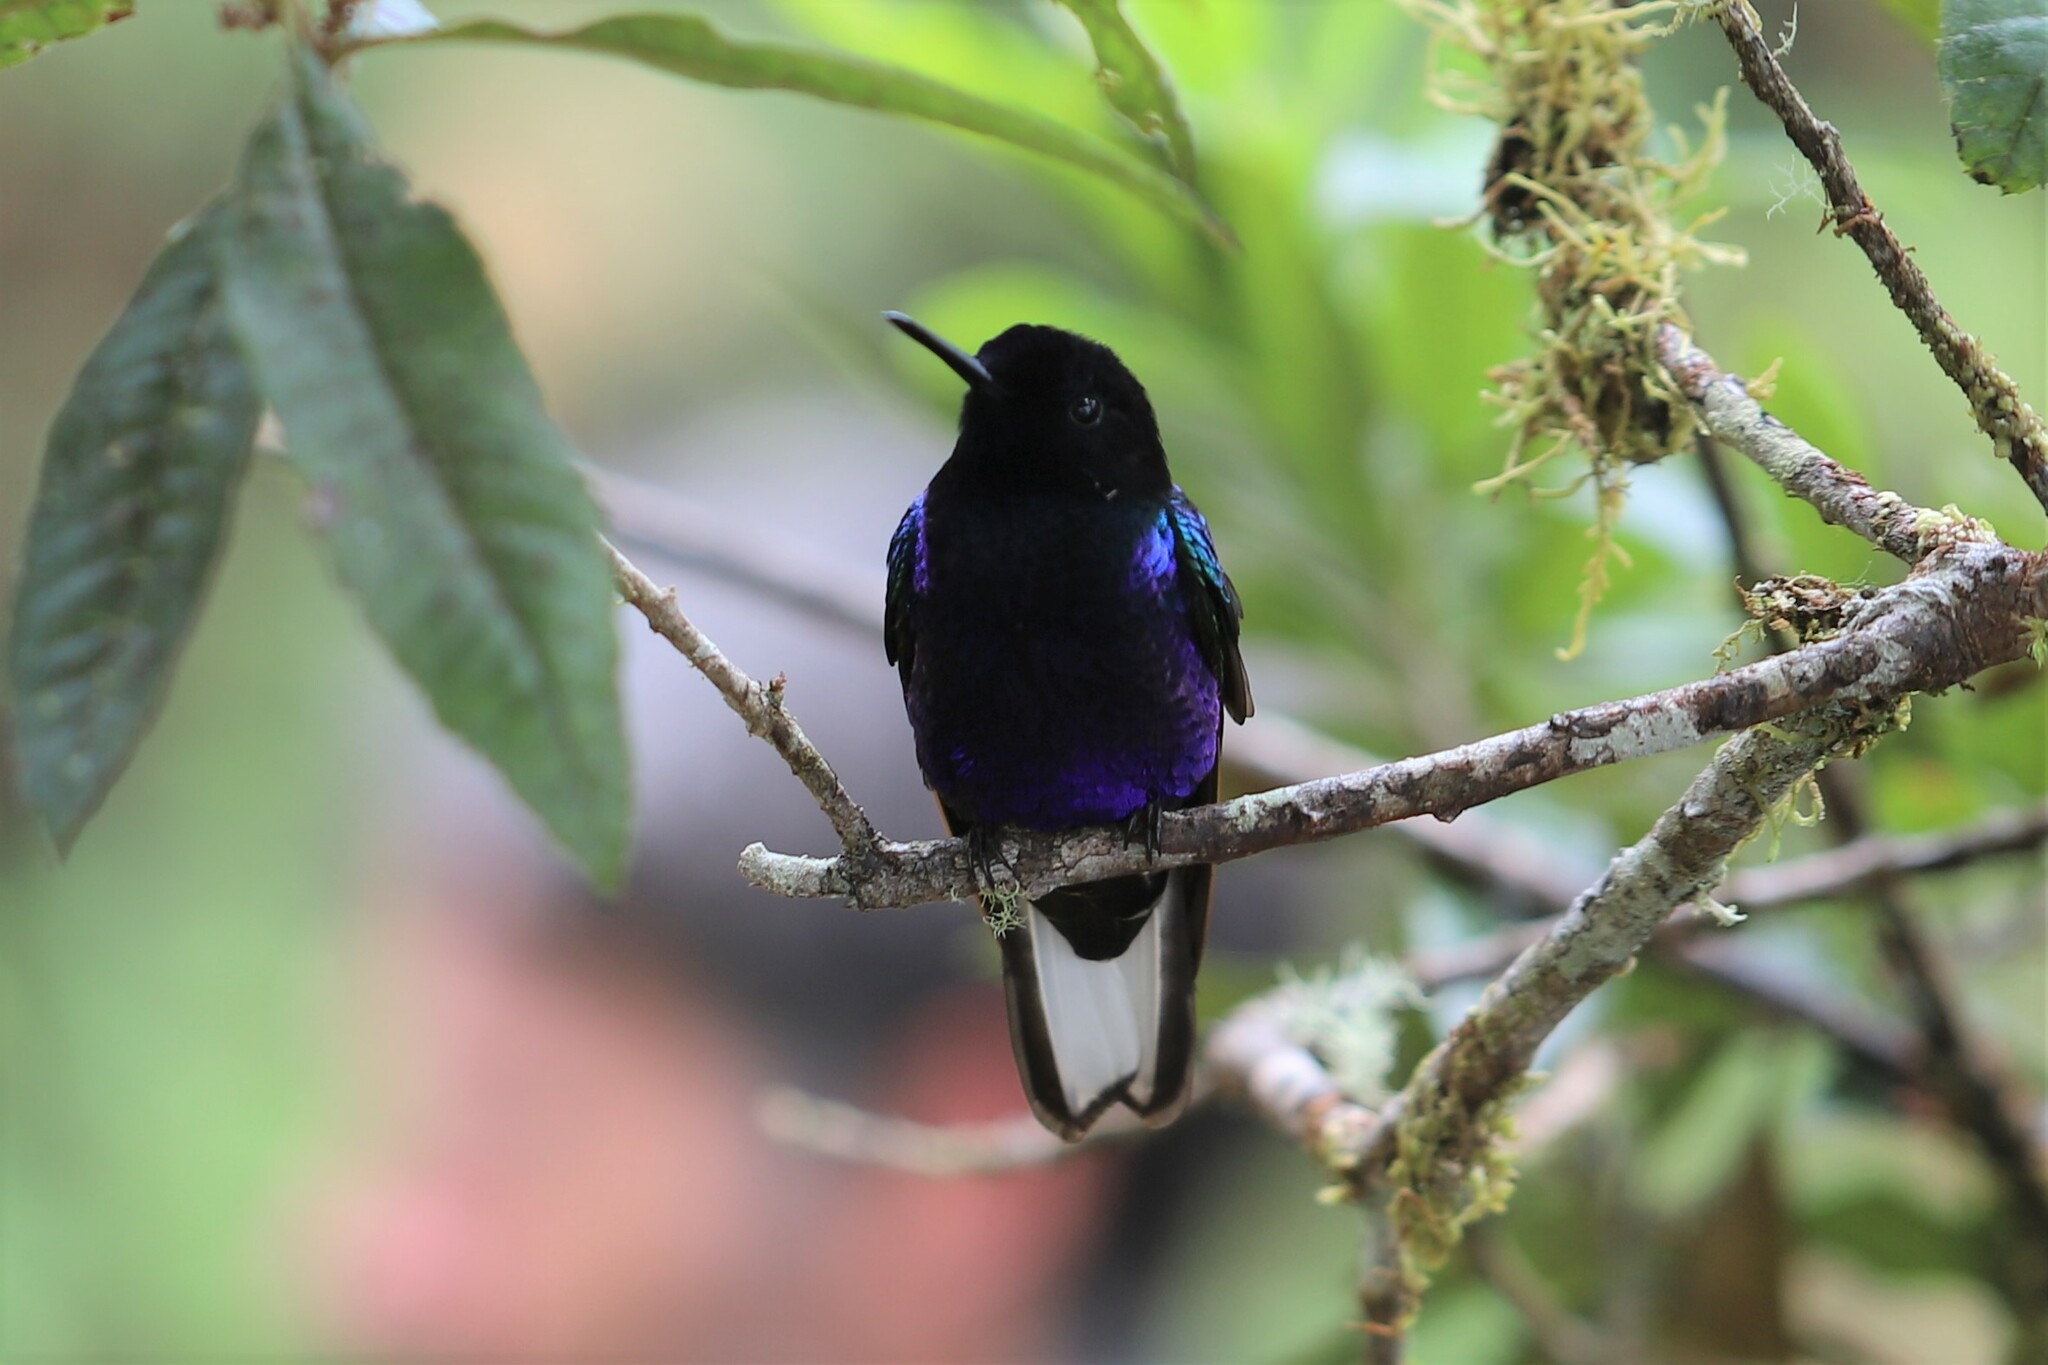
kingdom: Animalia
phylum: Chordata
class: Aves
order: Apodiformes
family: Trochilidae
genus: Boissonneaua
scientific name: Boissonneaua jardini
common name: Velvet-purple coronet
